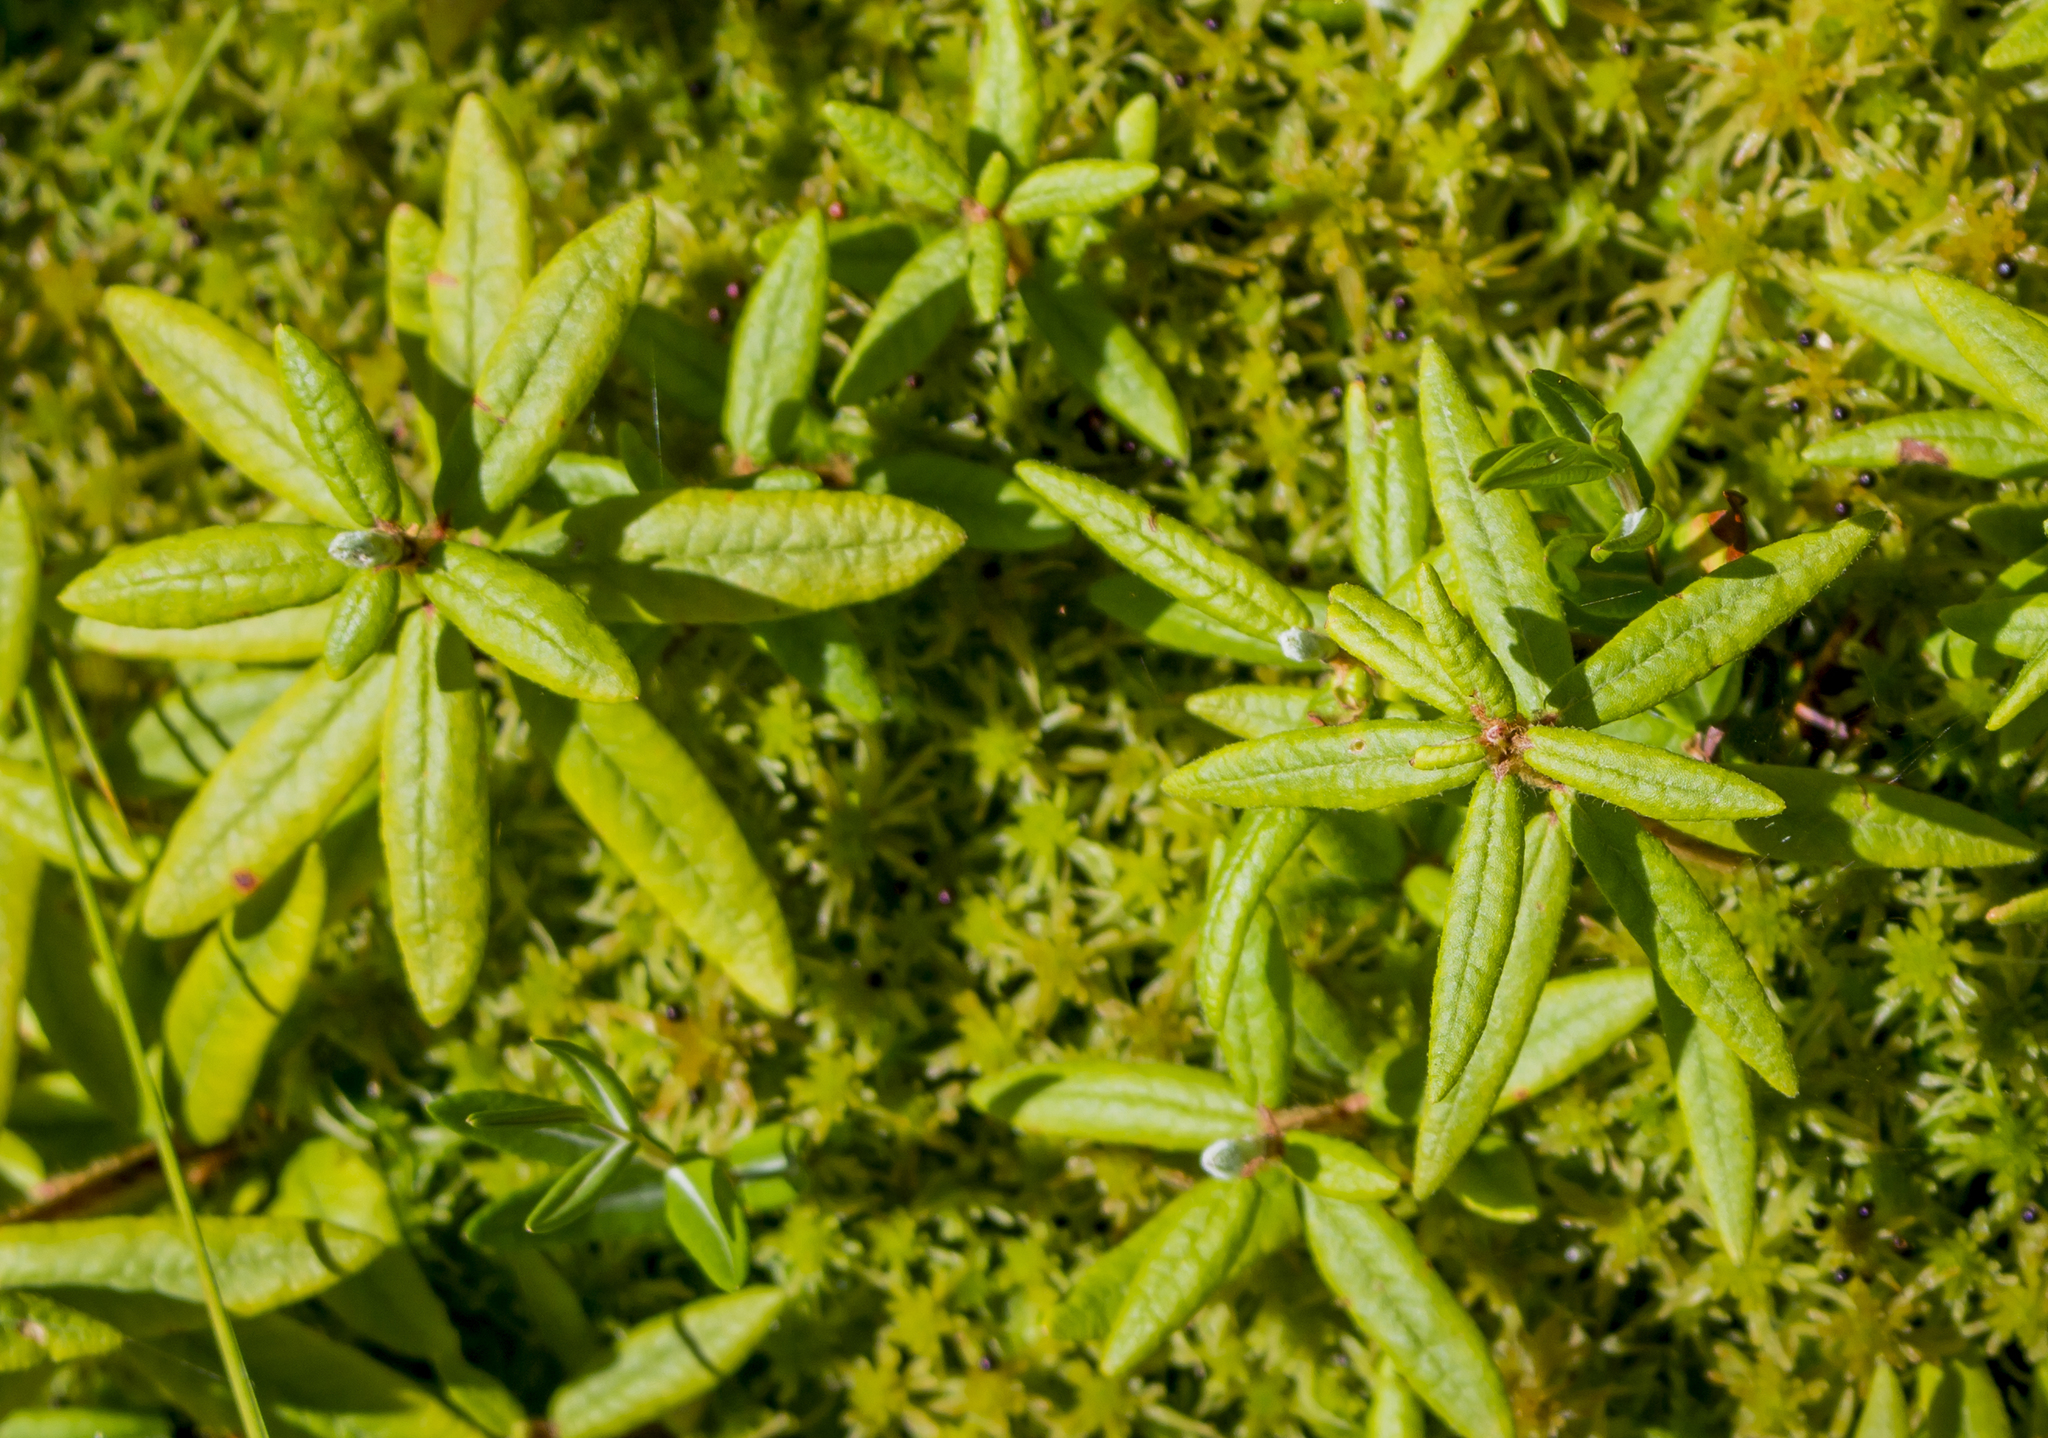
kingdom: Plantae
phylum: Tracheophyta
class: Magnoliopsida
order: Ericales
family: Ericaceae
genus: Rhododendron
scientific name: Rhododendron groenlandicum
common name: Bog labrador tea
